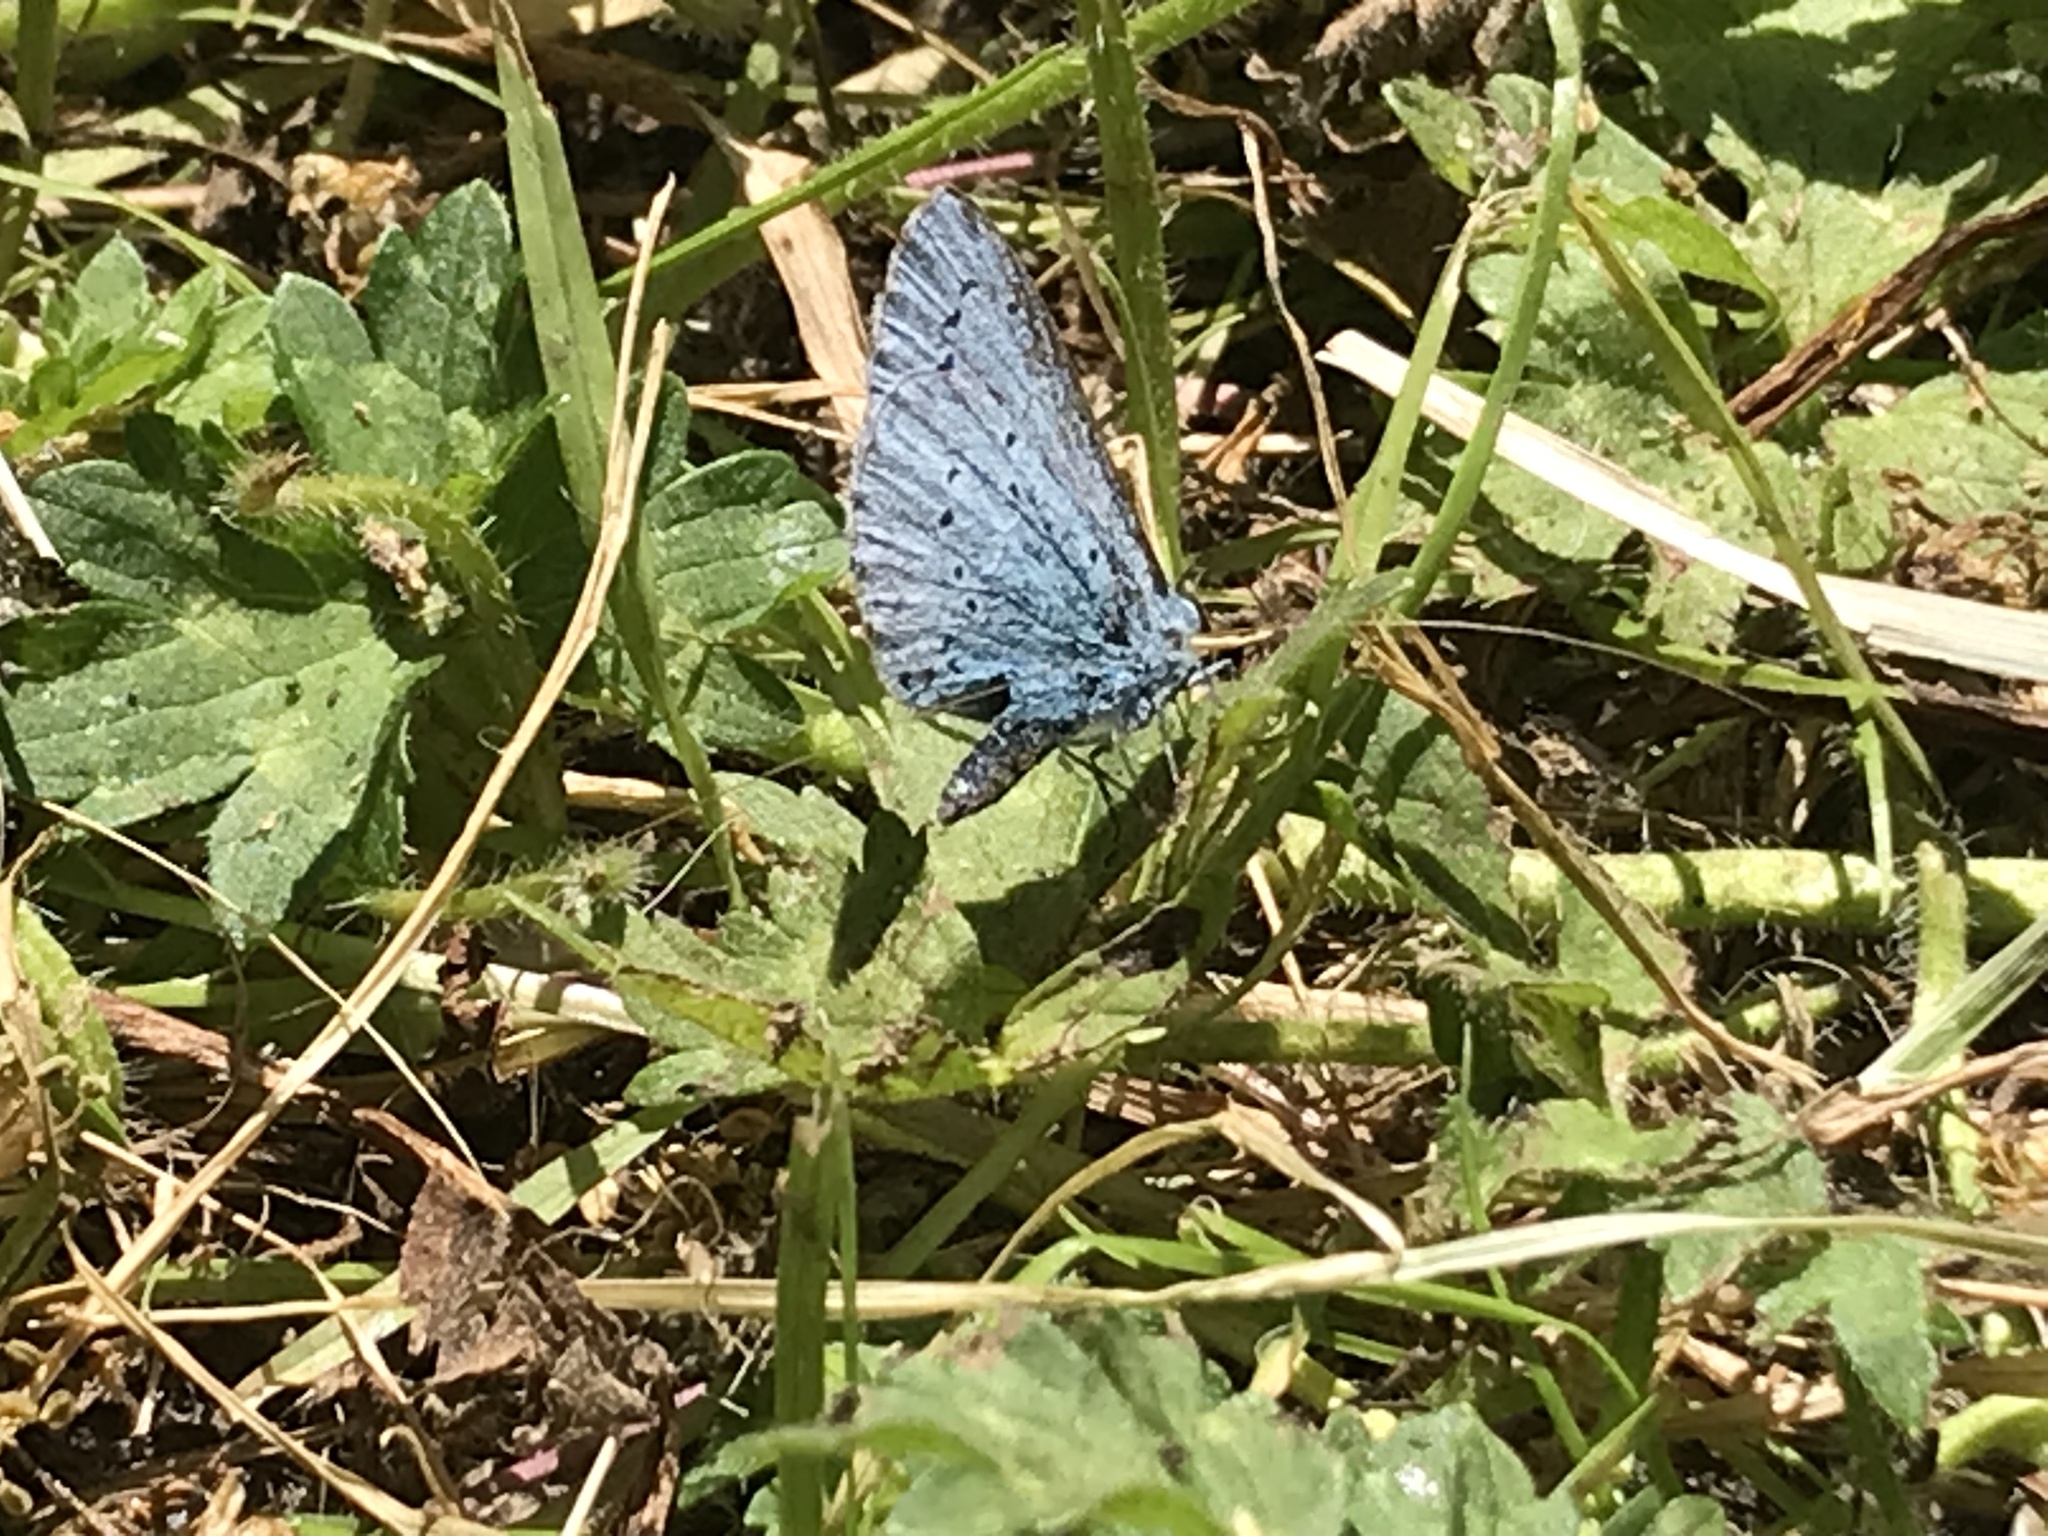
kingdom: Animalia
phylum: Arthropoda
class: Insecta
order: Lepidoptera
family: Lycaenidae
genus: Celastrina
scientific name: Celastrina argiolus
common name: Holly blue
